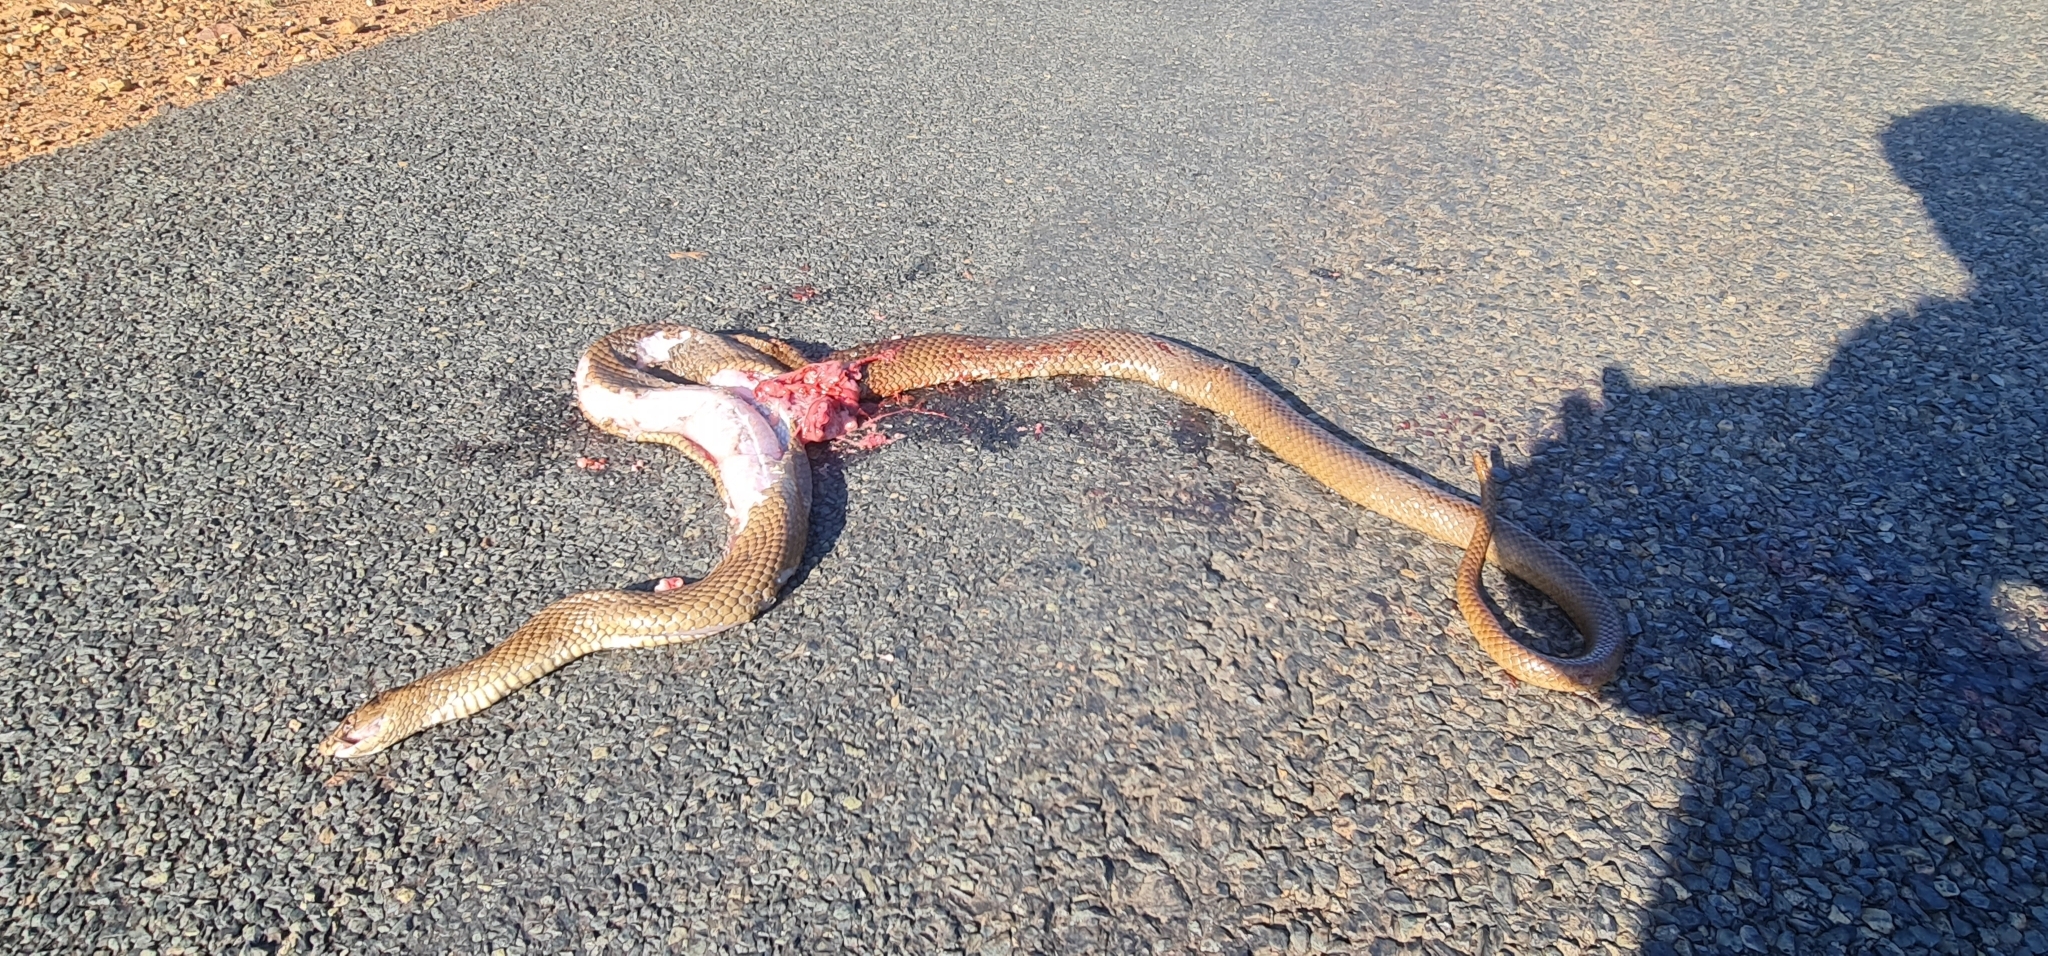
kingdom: Animalia
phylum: Chordata
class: Squamata
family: Elapidae
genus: Pseudonaja
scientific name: Pseudonaja textilis
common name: Eastern brown snake
